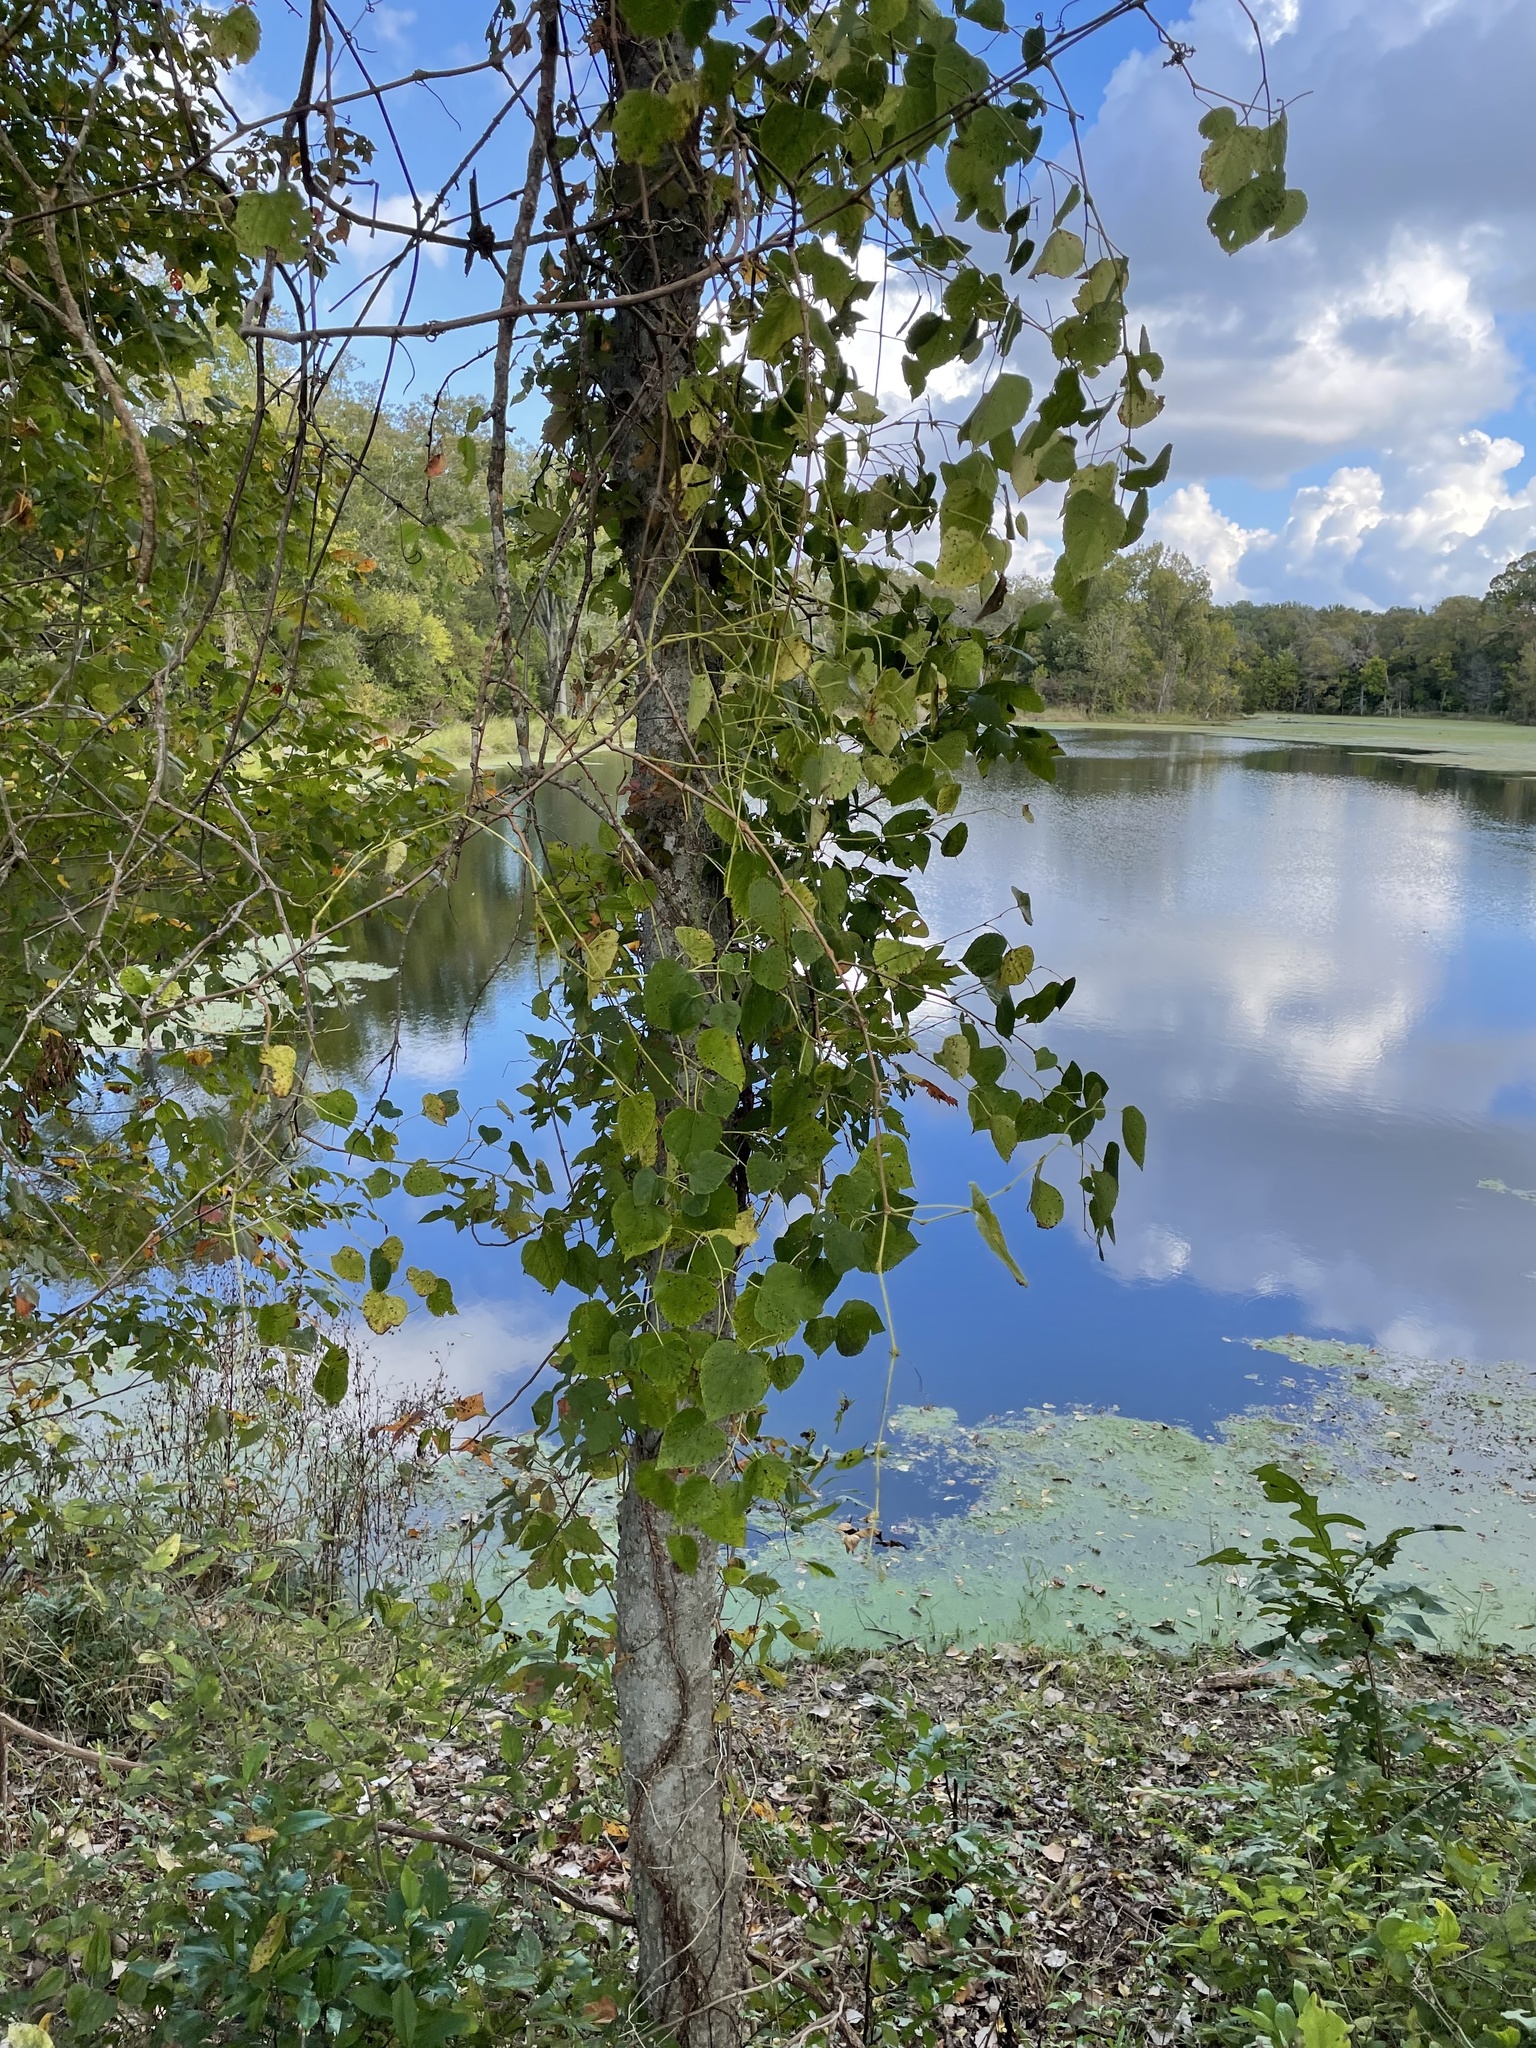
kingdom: Plantae
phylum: Tracheophyta
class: Magnoliopsida
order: Vitales
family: Vitaceae
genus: Ampelopsis
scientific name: Ampelopsis cordata
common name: Heart-leaf ampelopsis
